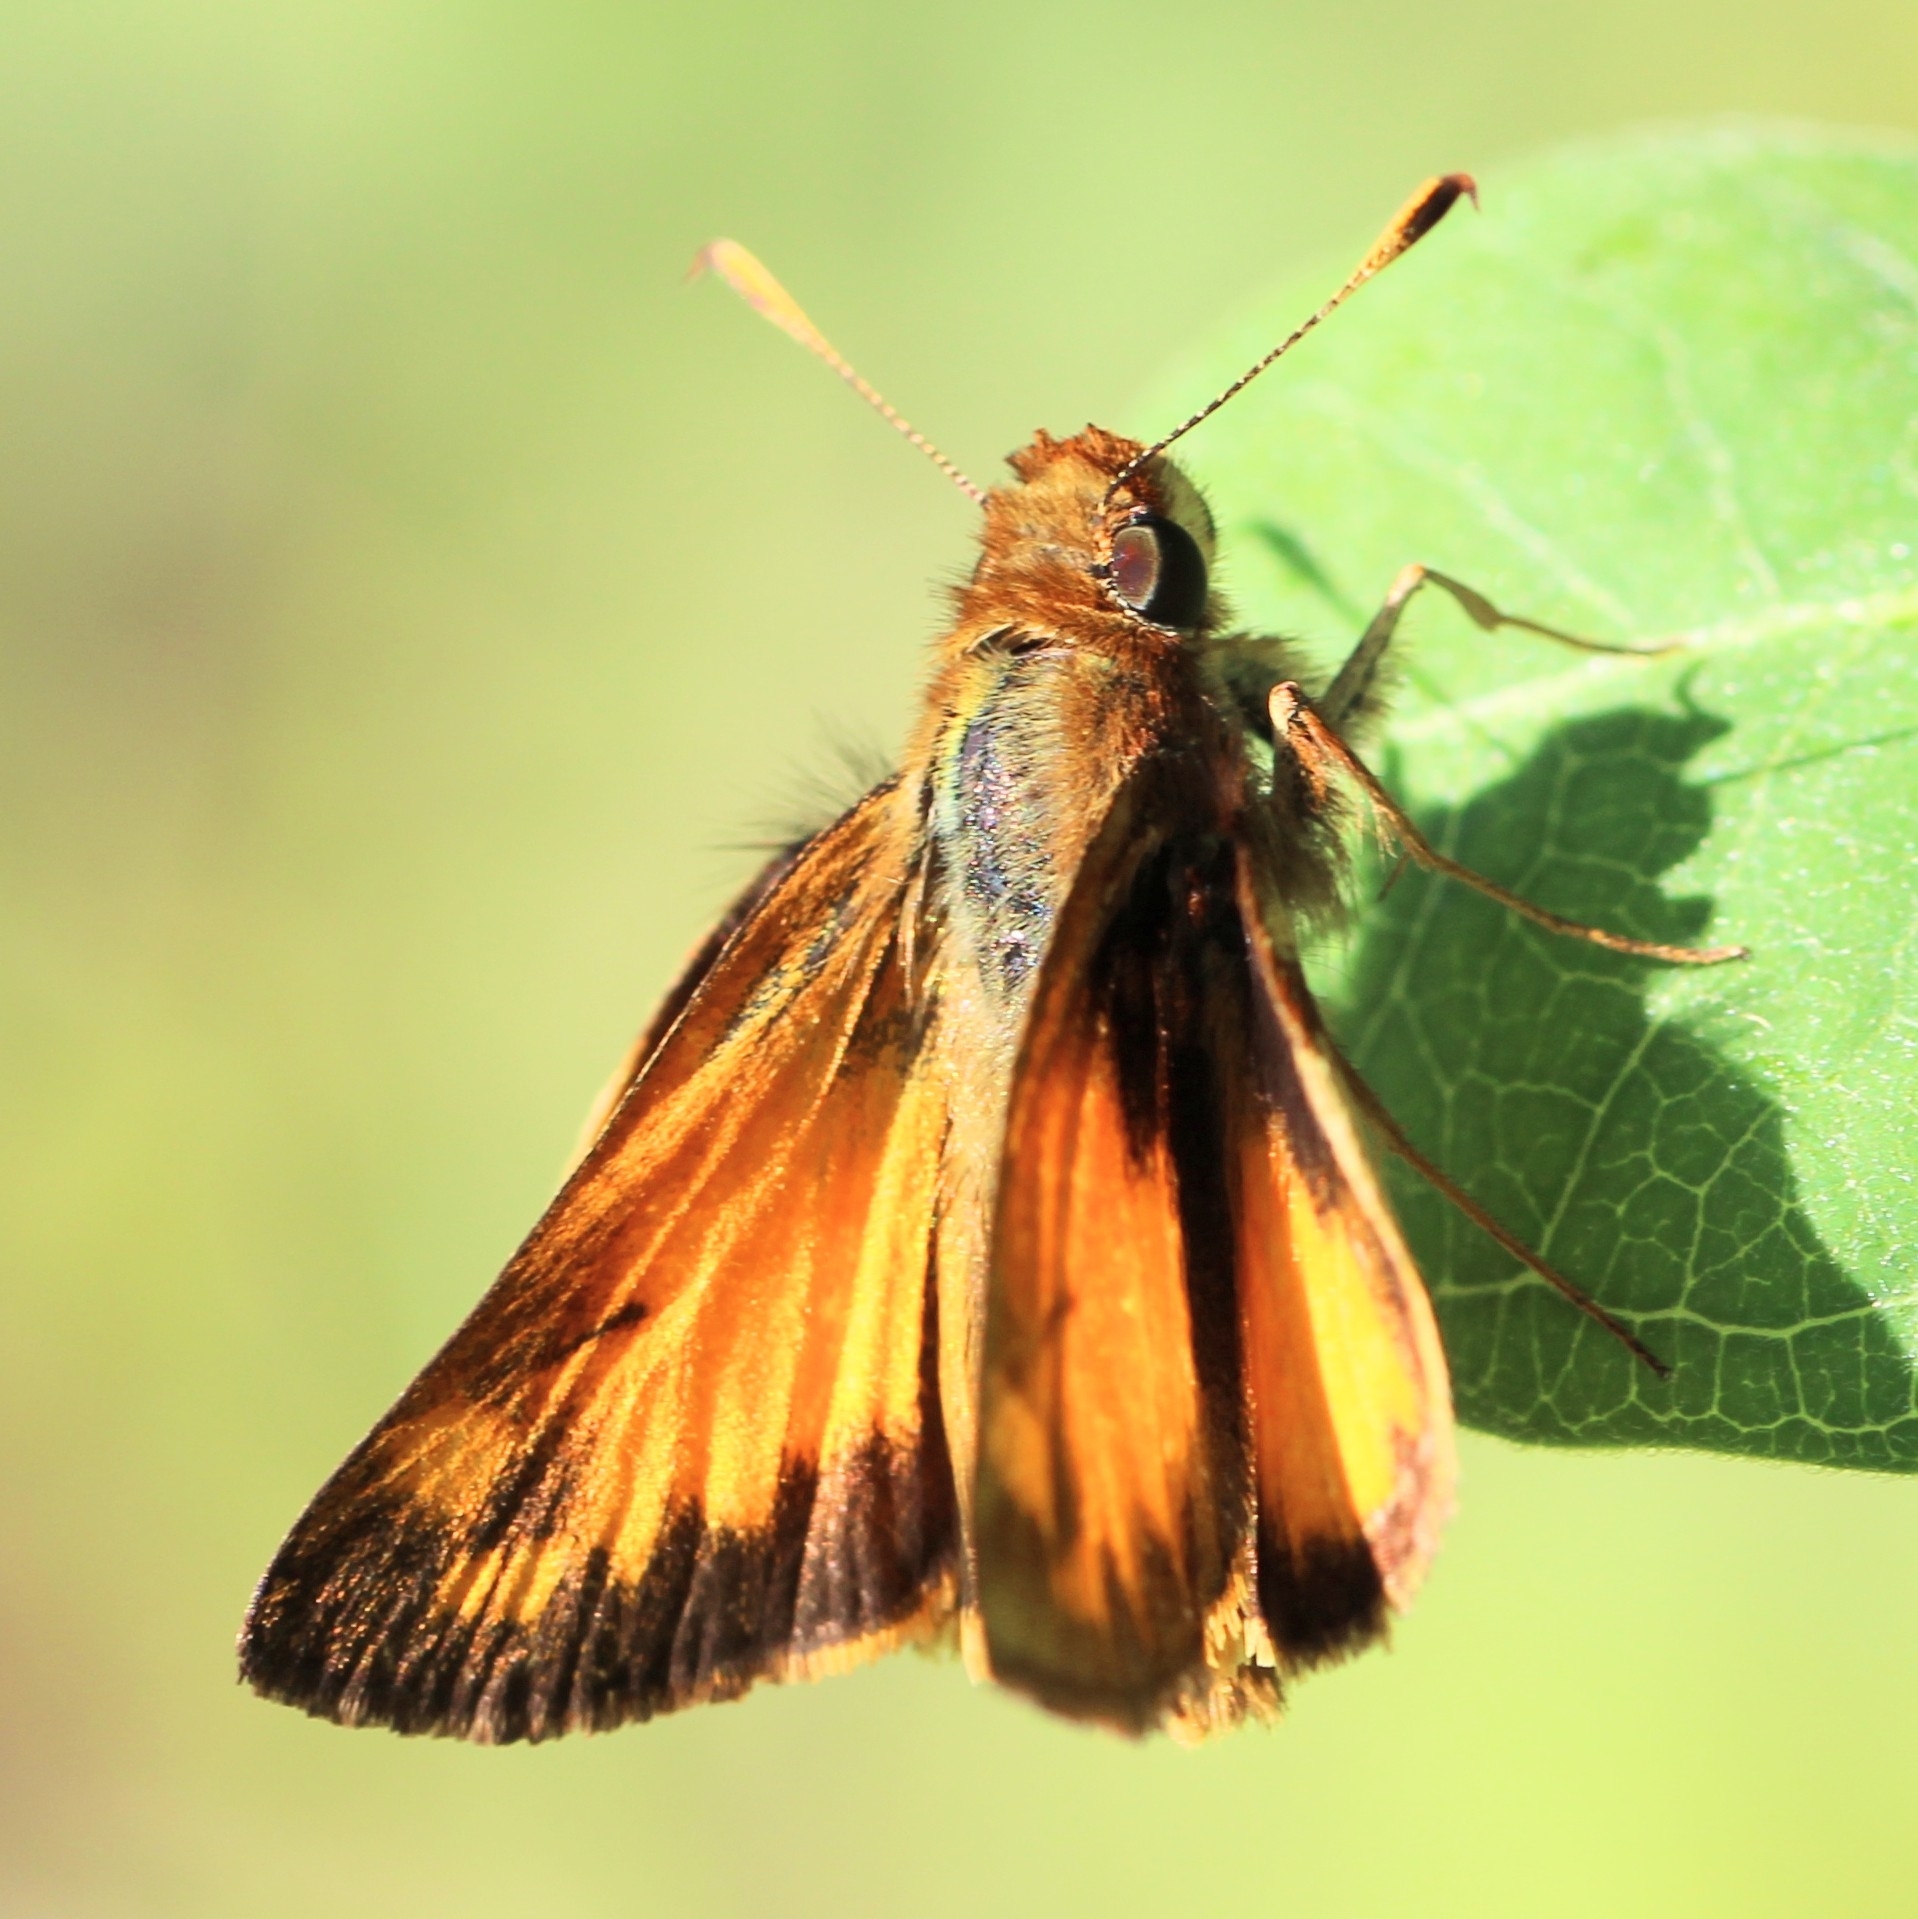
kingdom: Animalia
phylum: Arthropoda
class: Insecta
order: Lepidoptera
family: Hesperiidae
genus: Lon
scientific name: Lon zabulon
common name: Zabulon skipper
